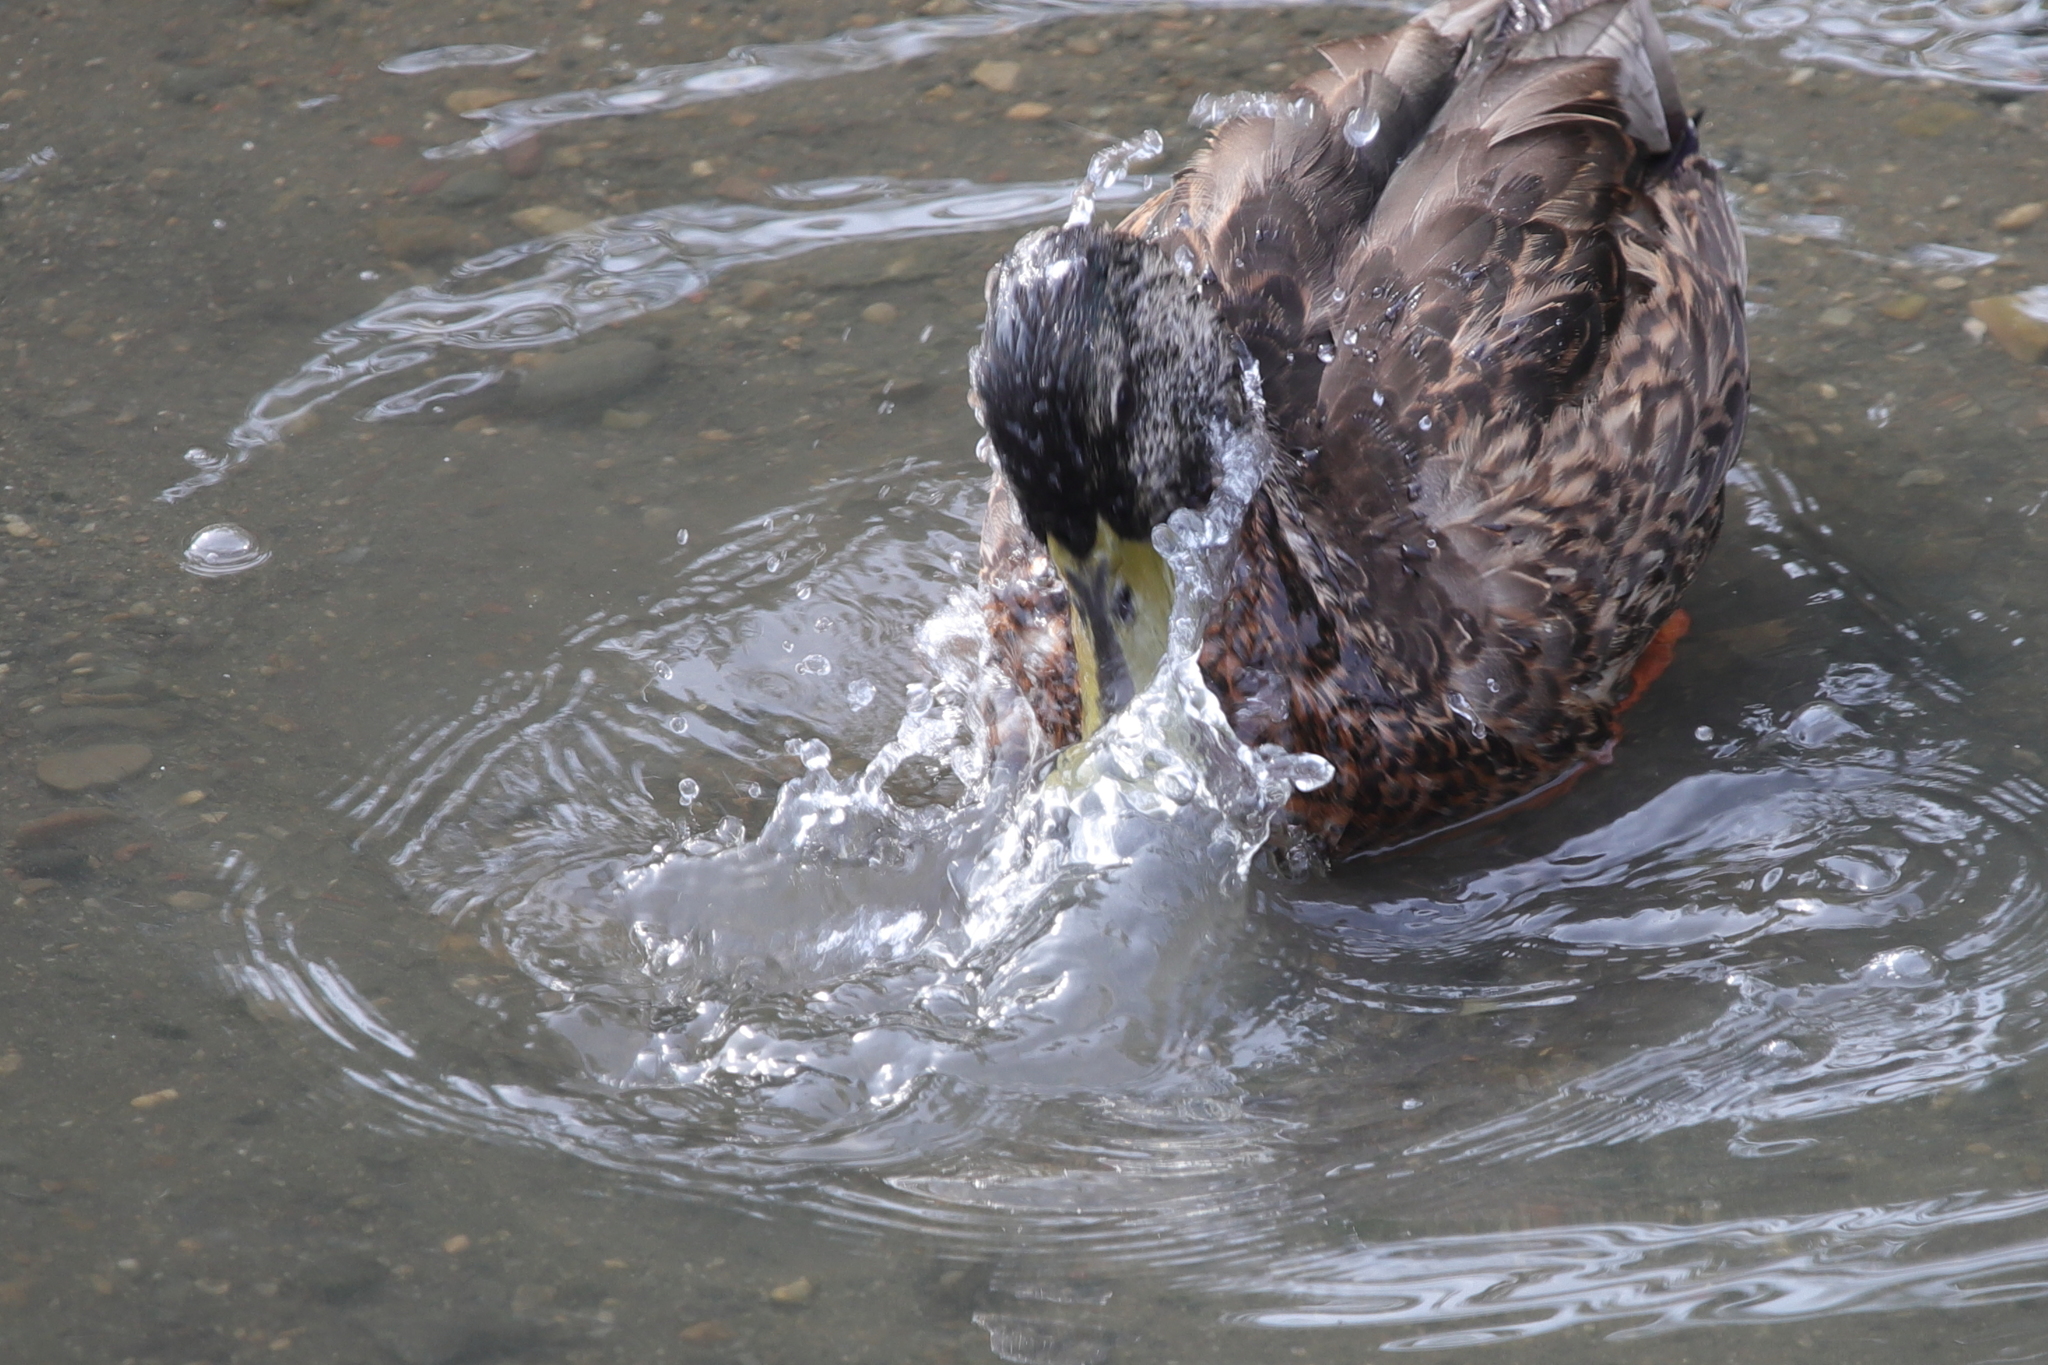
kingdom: Animalia
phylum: Chordata
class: Aves
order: Anseriformes
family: Anatidae
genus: Anas
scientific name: Anas platyrhynchos
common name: Mallard
